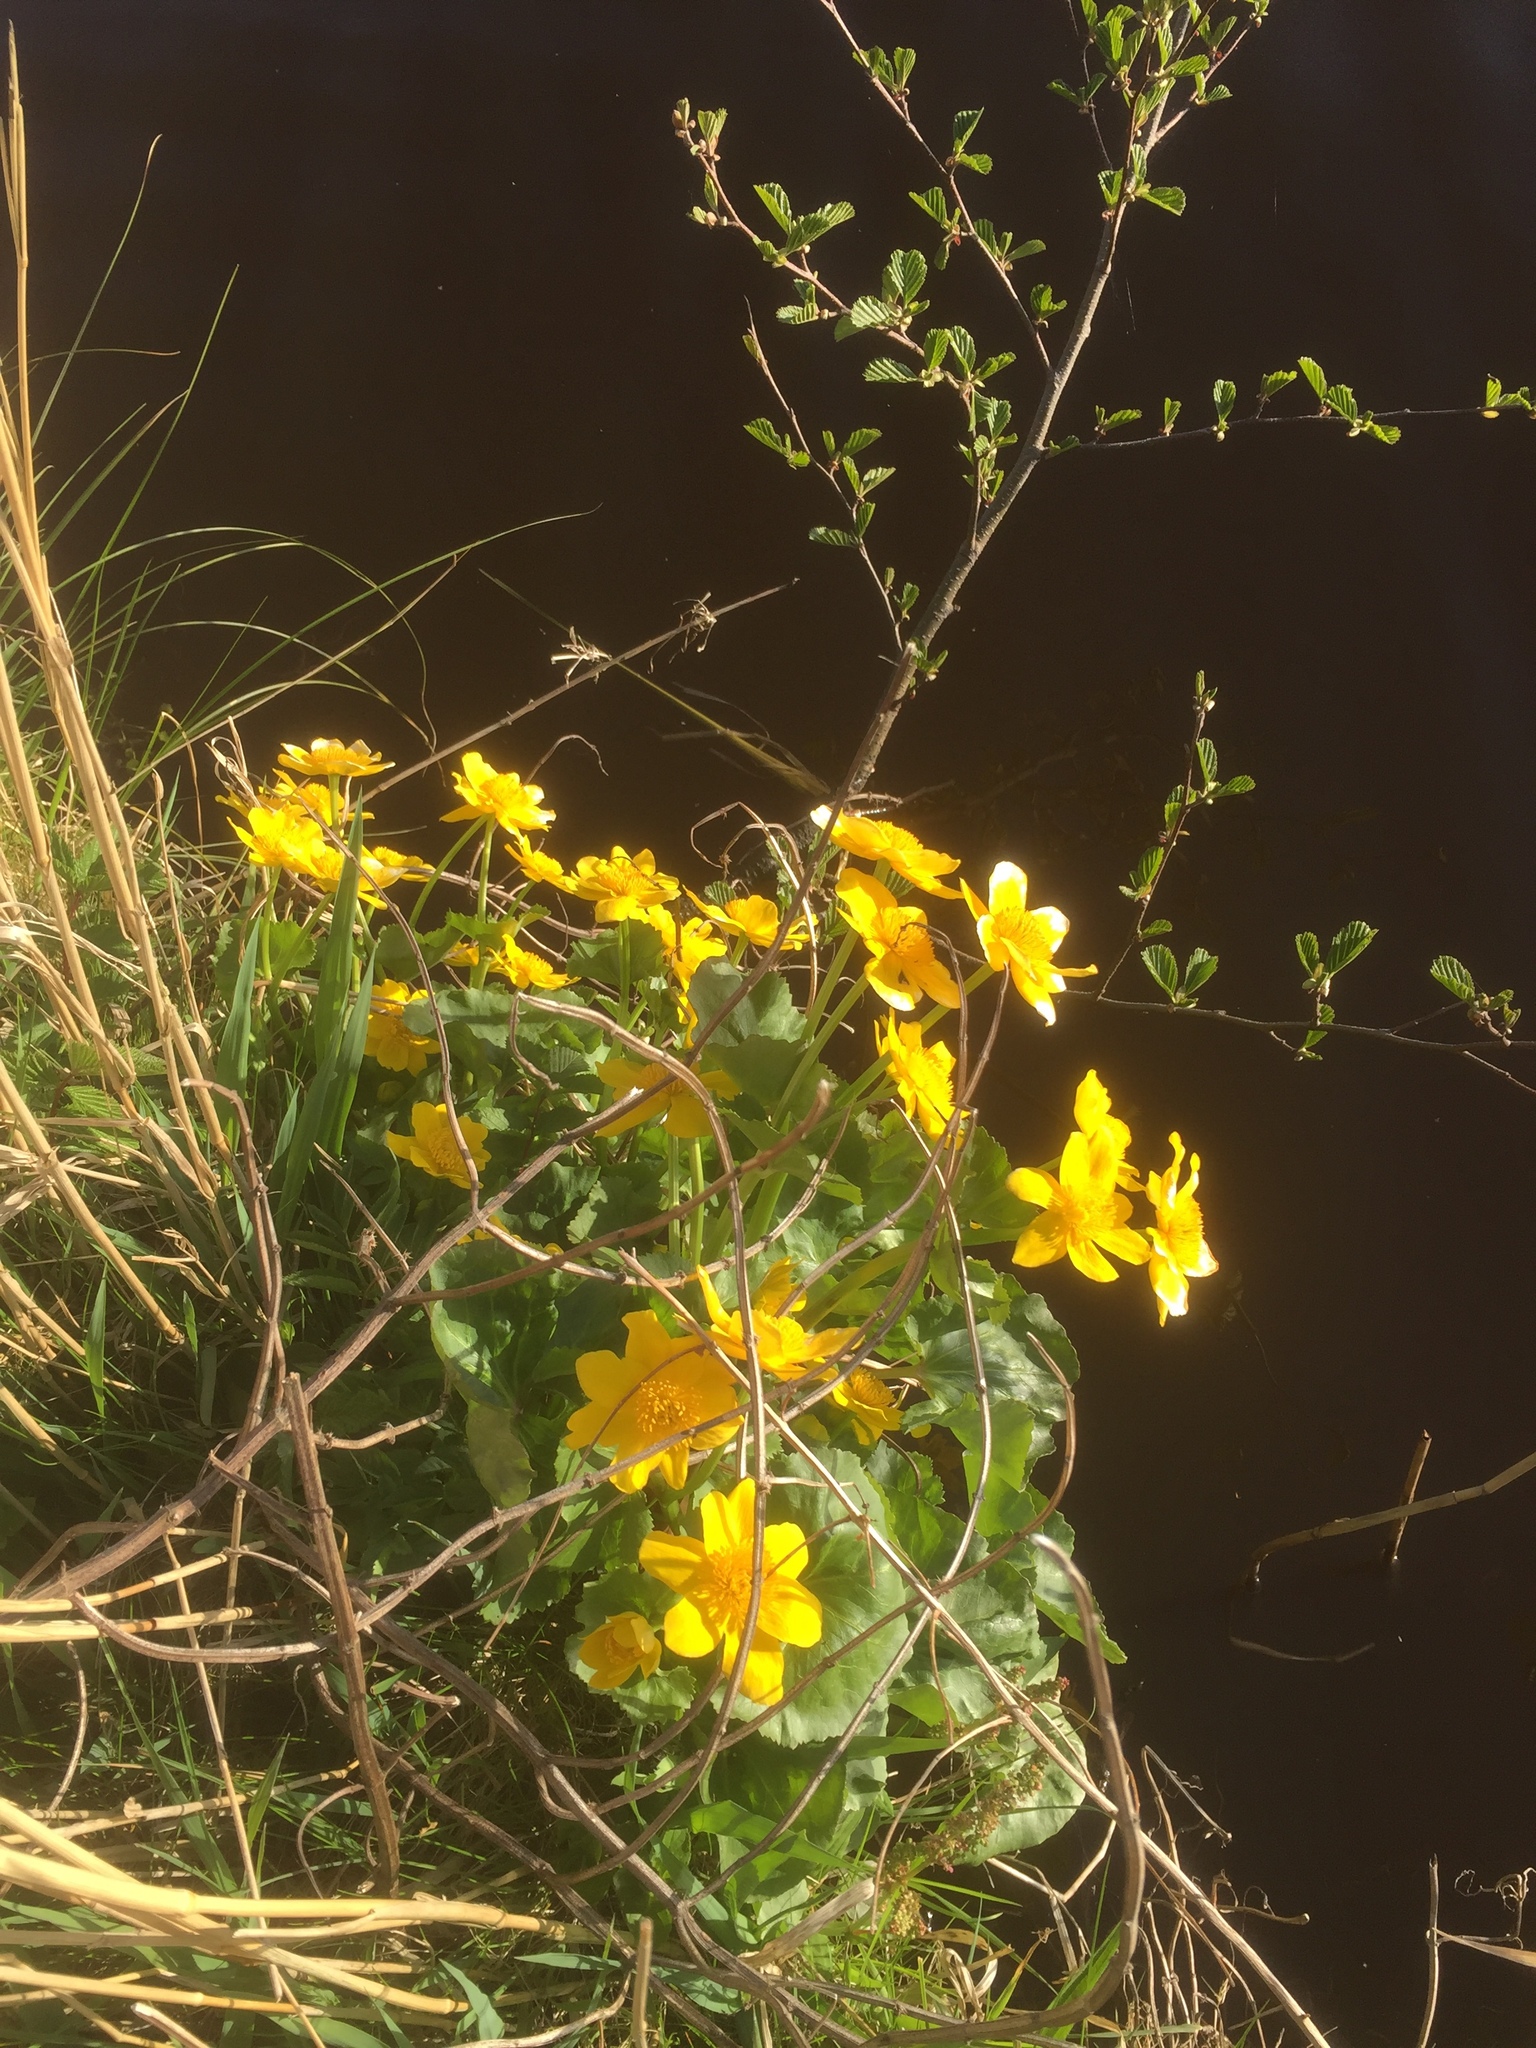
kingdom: Plantae
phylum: Tracheophyta
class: Magnoliopsida
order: Ranunculales
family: Ranunculaceae
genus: Caltha
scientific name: Caltha palustris
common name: Marsh marigold
